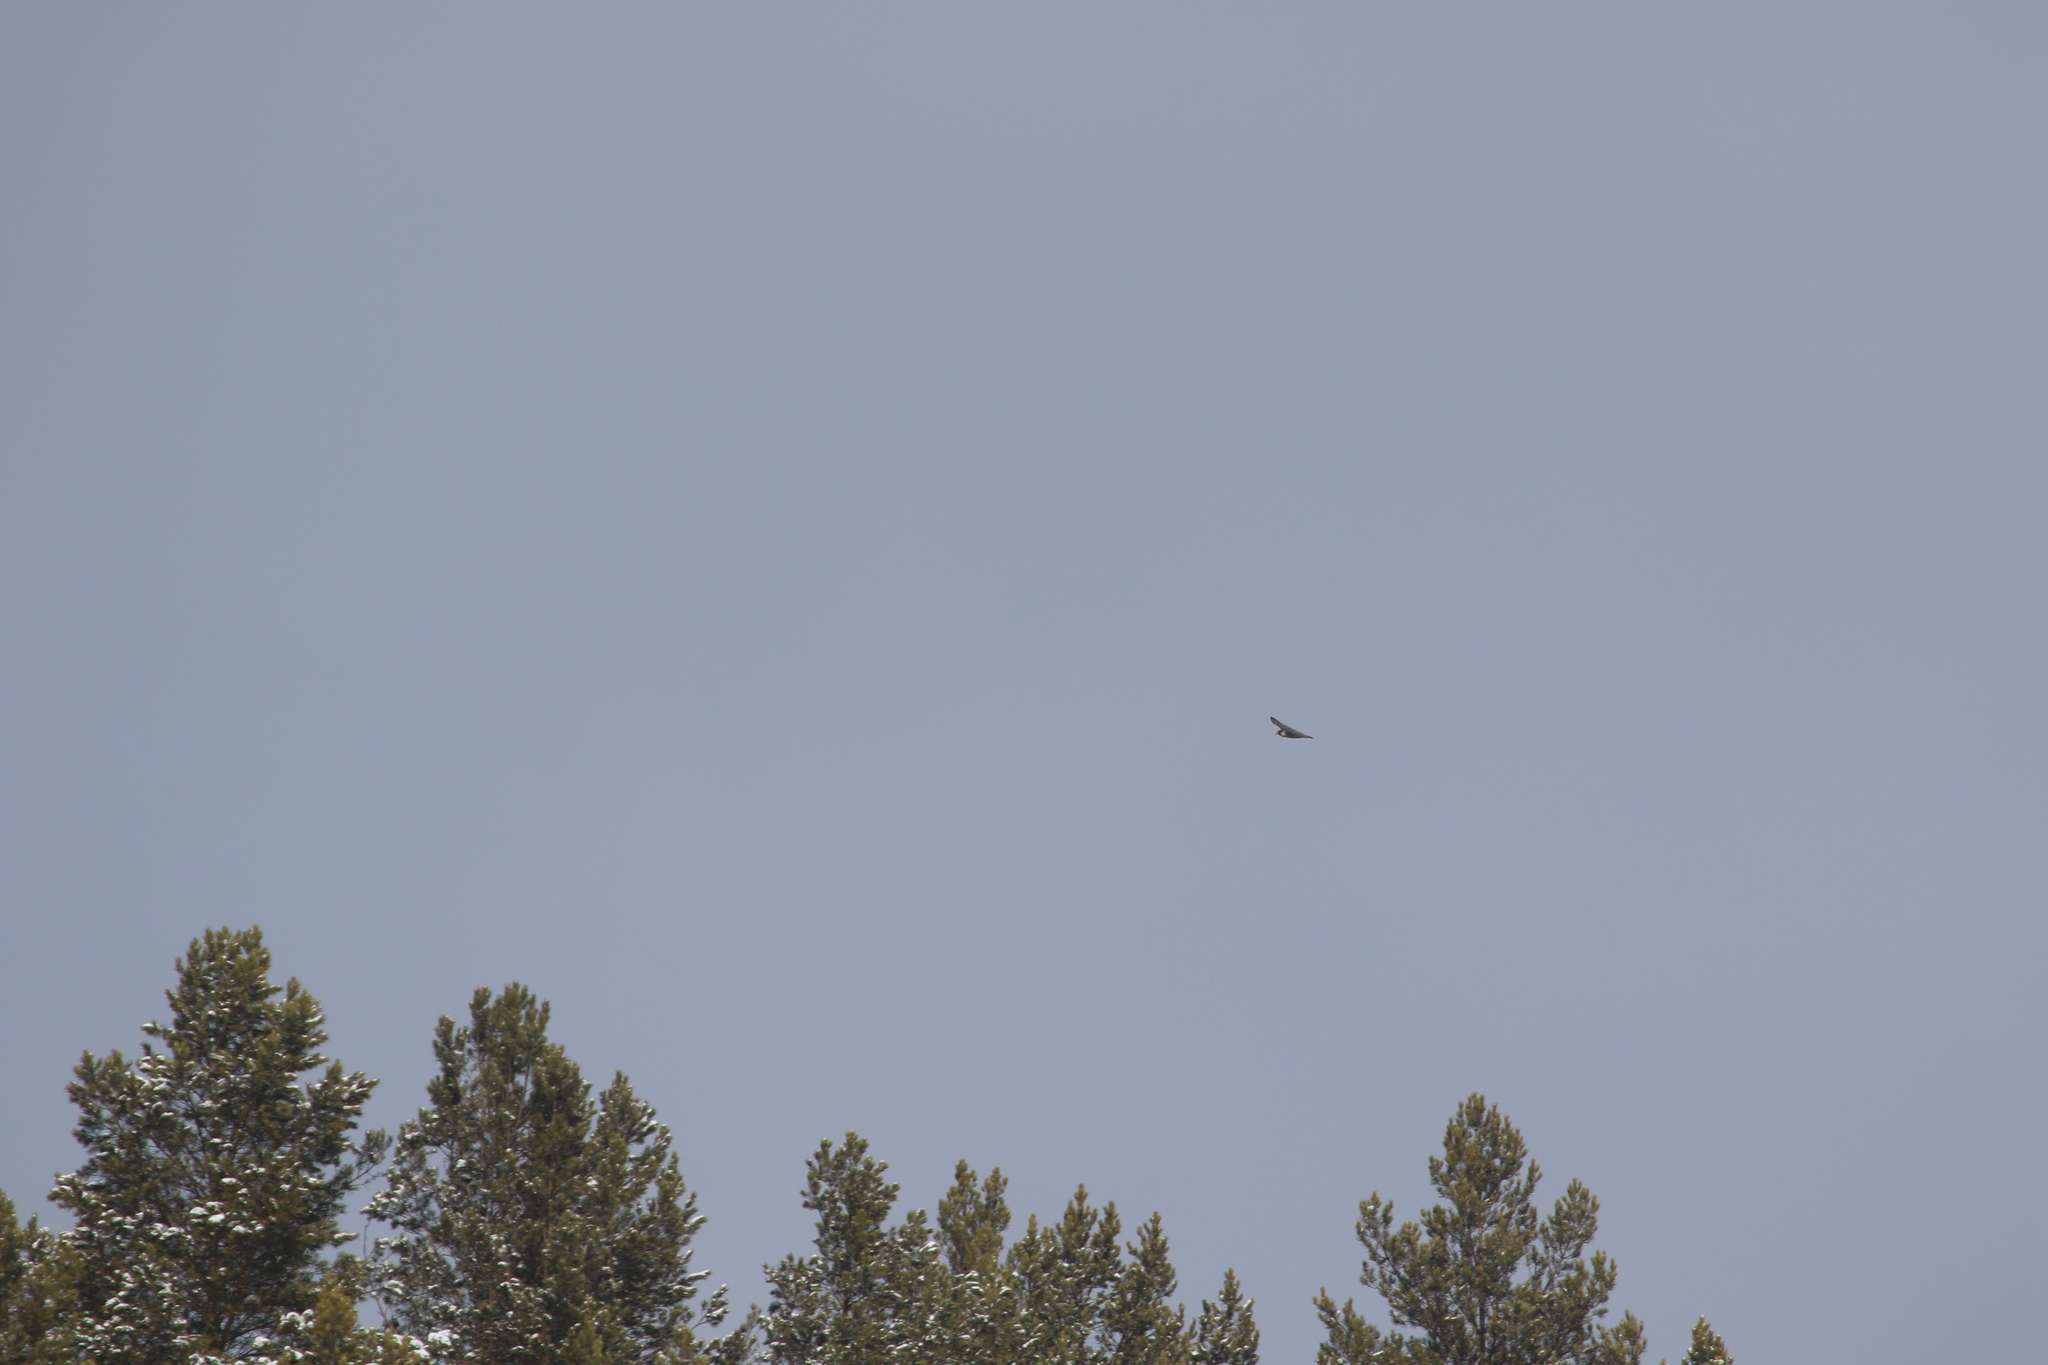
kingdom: Animalia
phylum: Chordata
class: Aves
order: Falconiformes
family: Falconidae
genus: Falco
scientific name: Falco peregrinus
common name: Peregrine falcon
